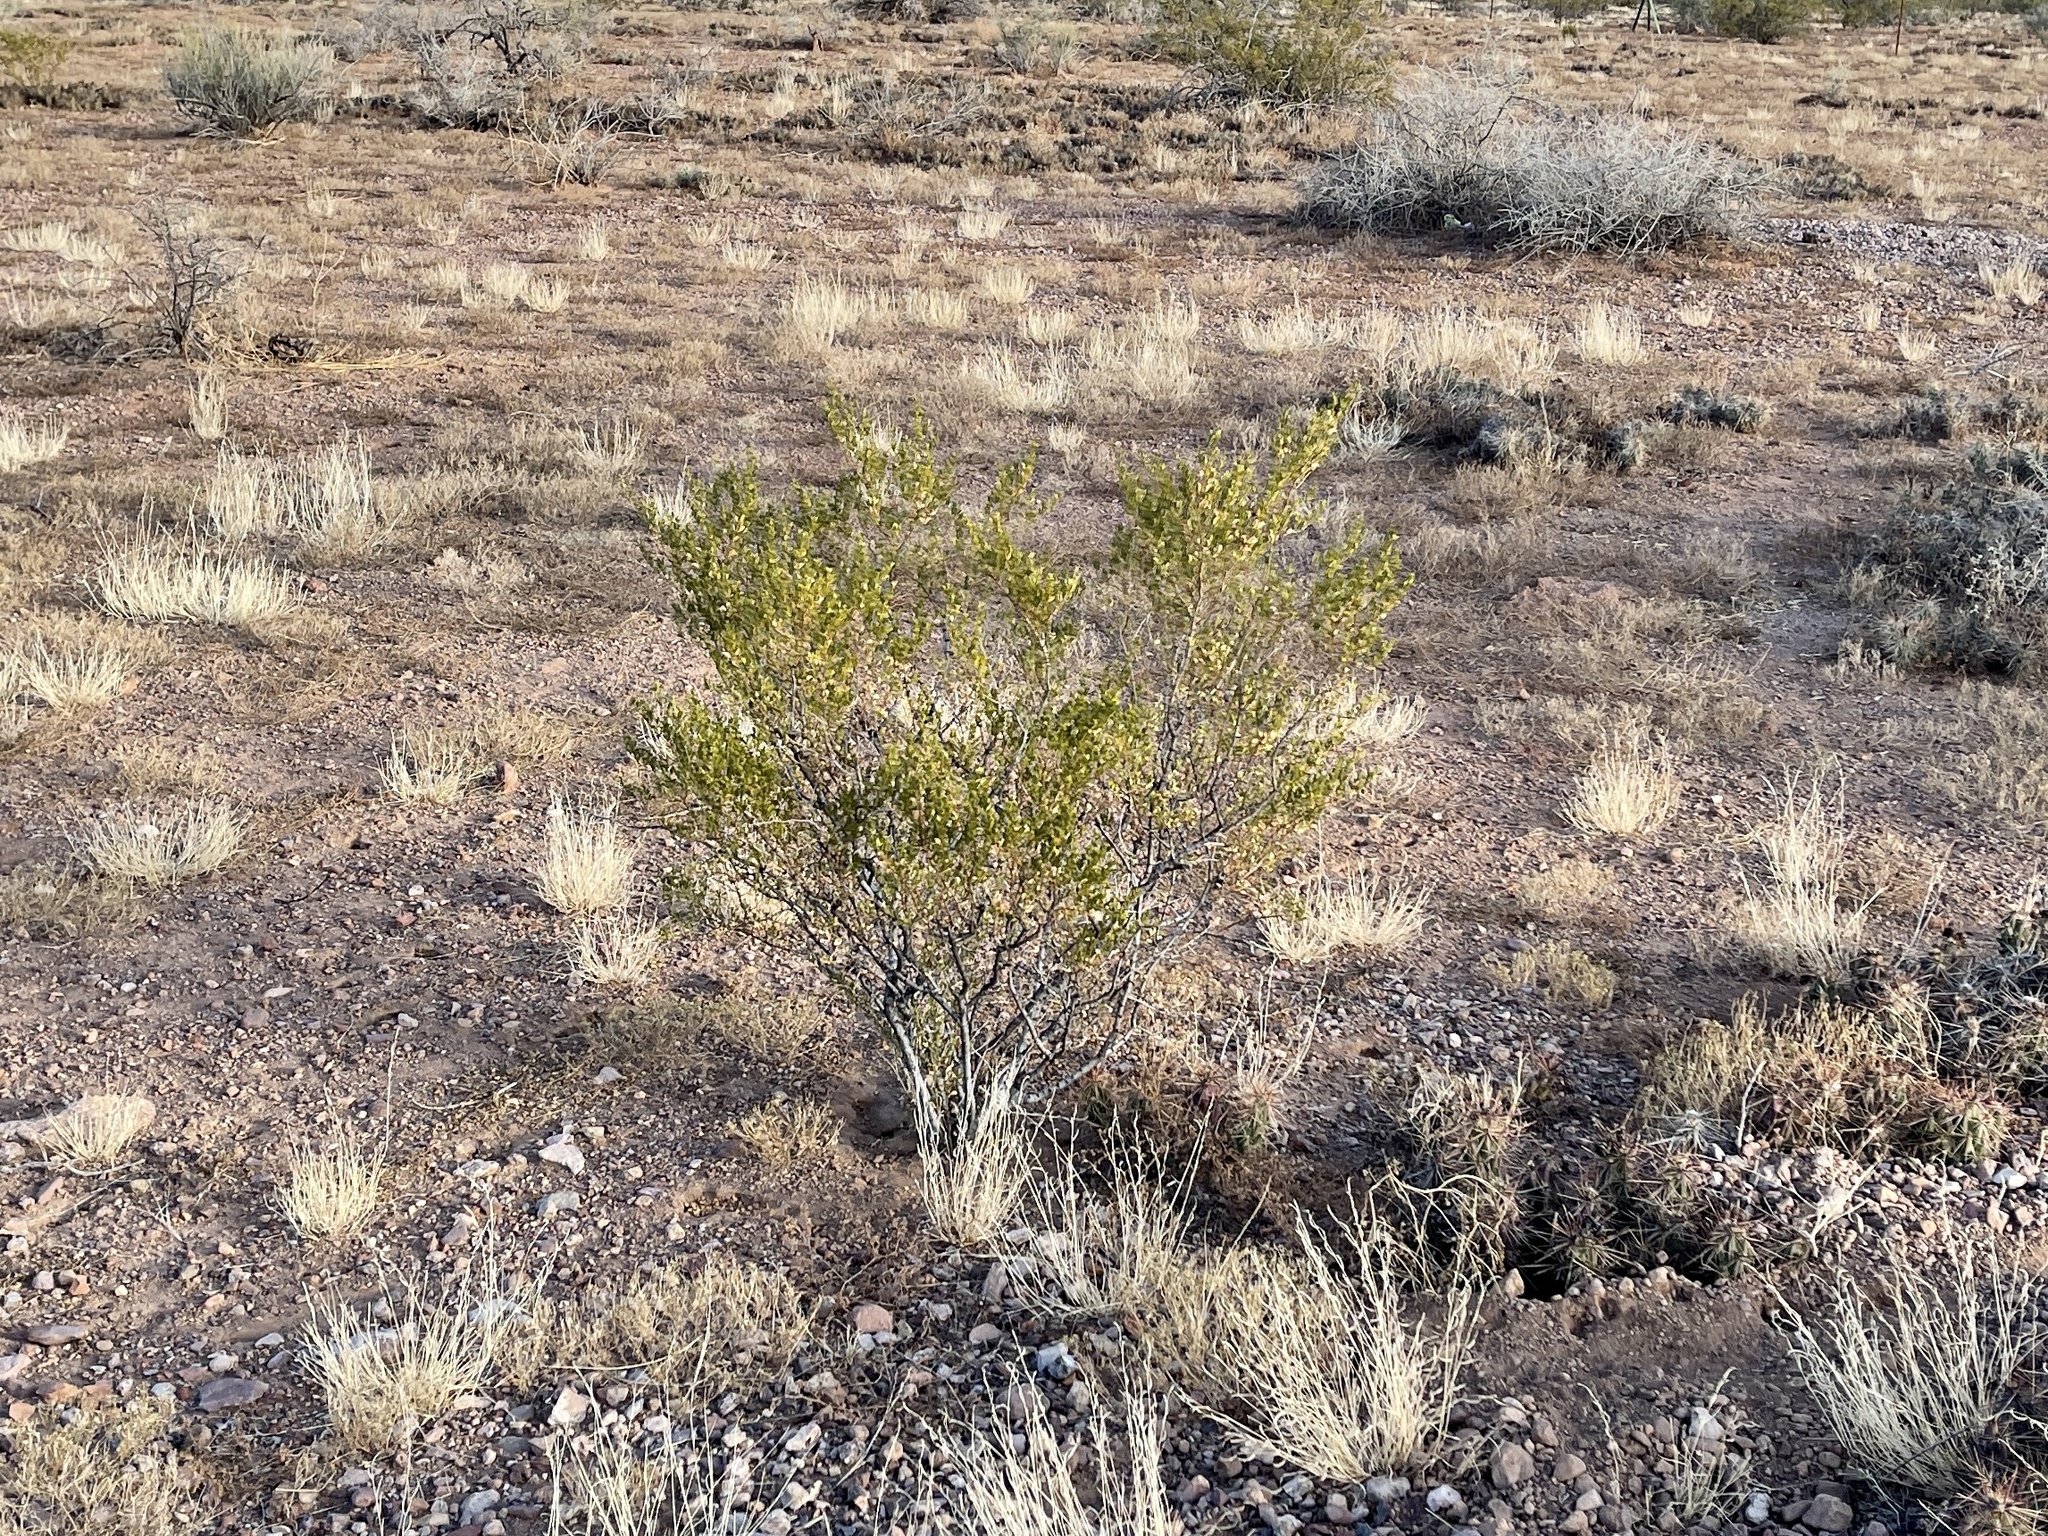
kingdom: Plantae
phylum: Tracheophyta
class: Magnoliopsida
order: Zygophyllales
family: Zygophyllaceae
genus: Larrea
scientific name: Larrea tridentata
